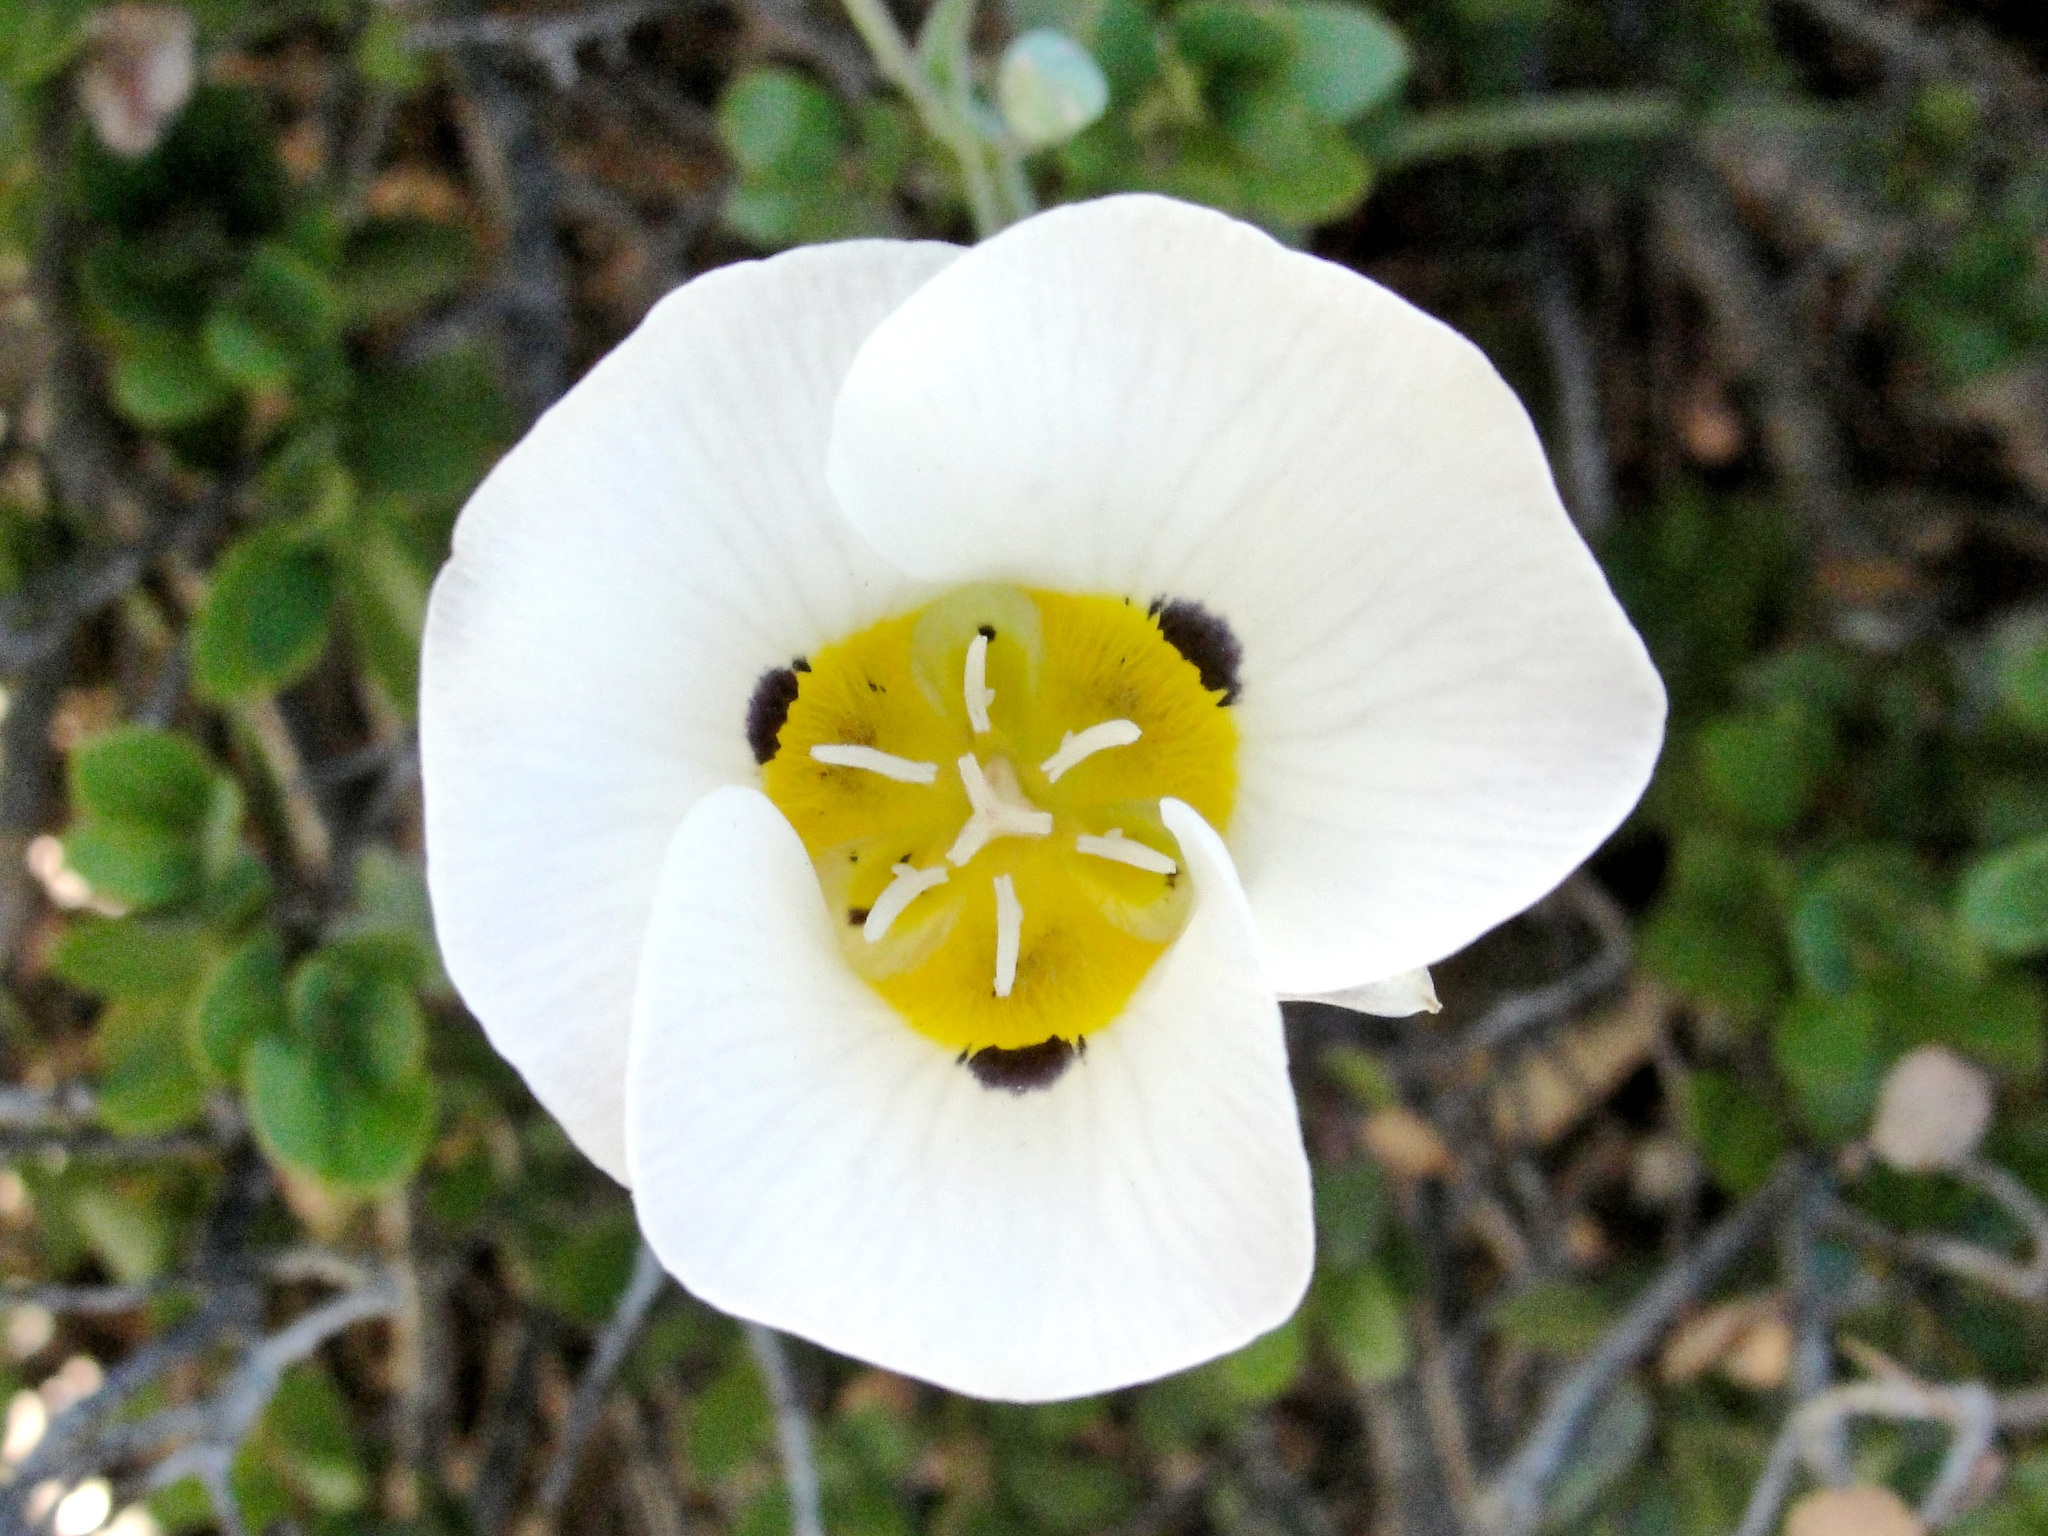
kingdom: Plantae
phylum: Tracheophyta
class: Liliopsida
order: Liliales
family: Liliaceae
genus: Calochortus
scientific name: Calochortus leichtlinii
